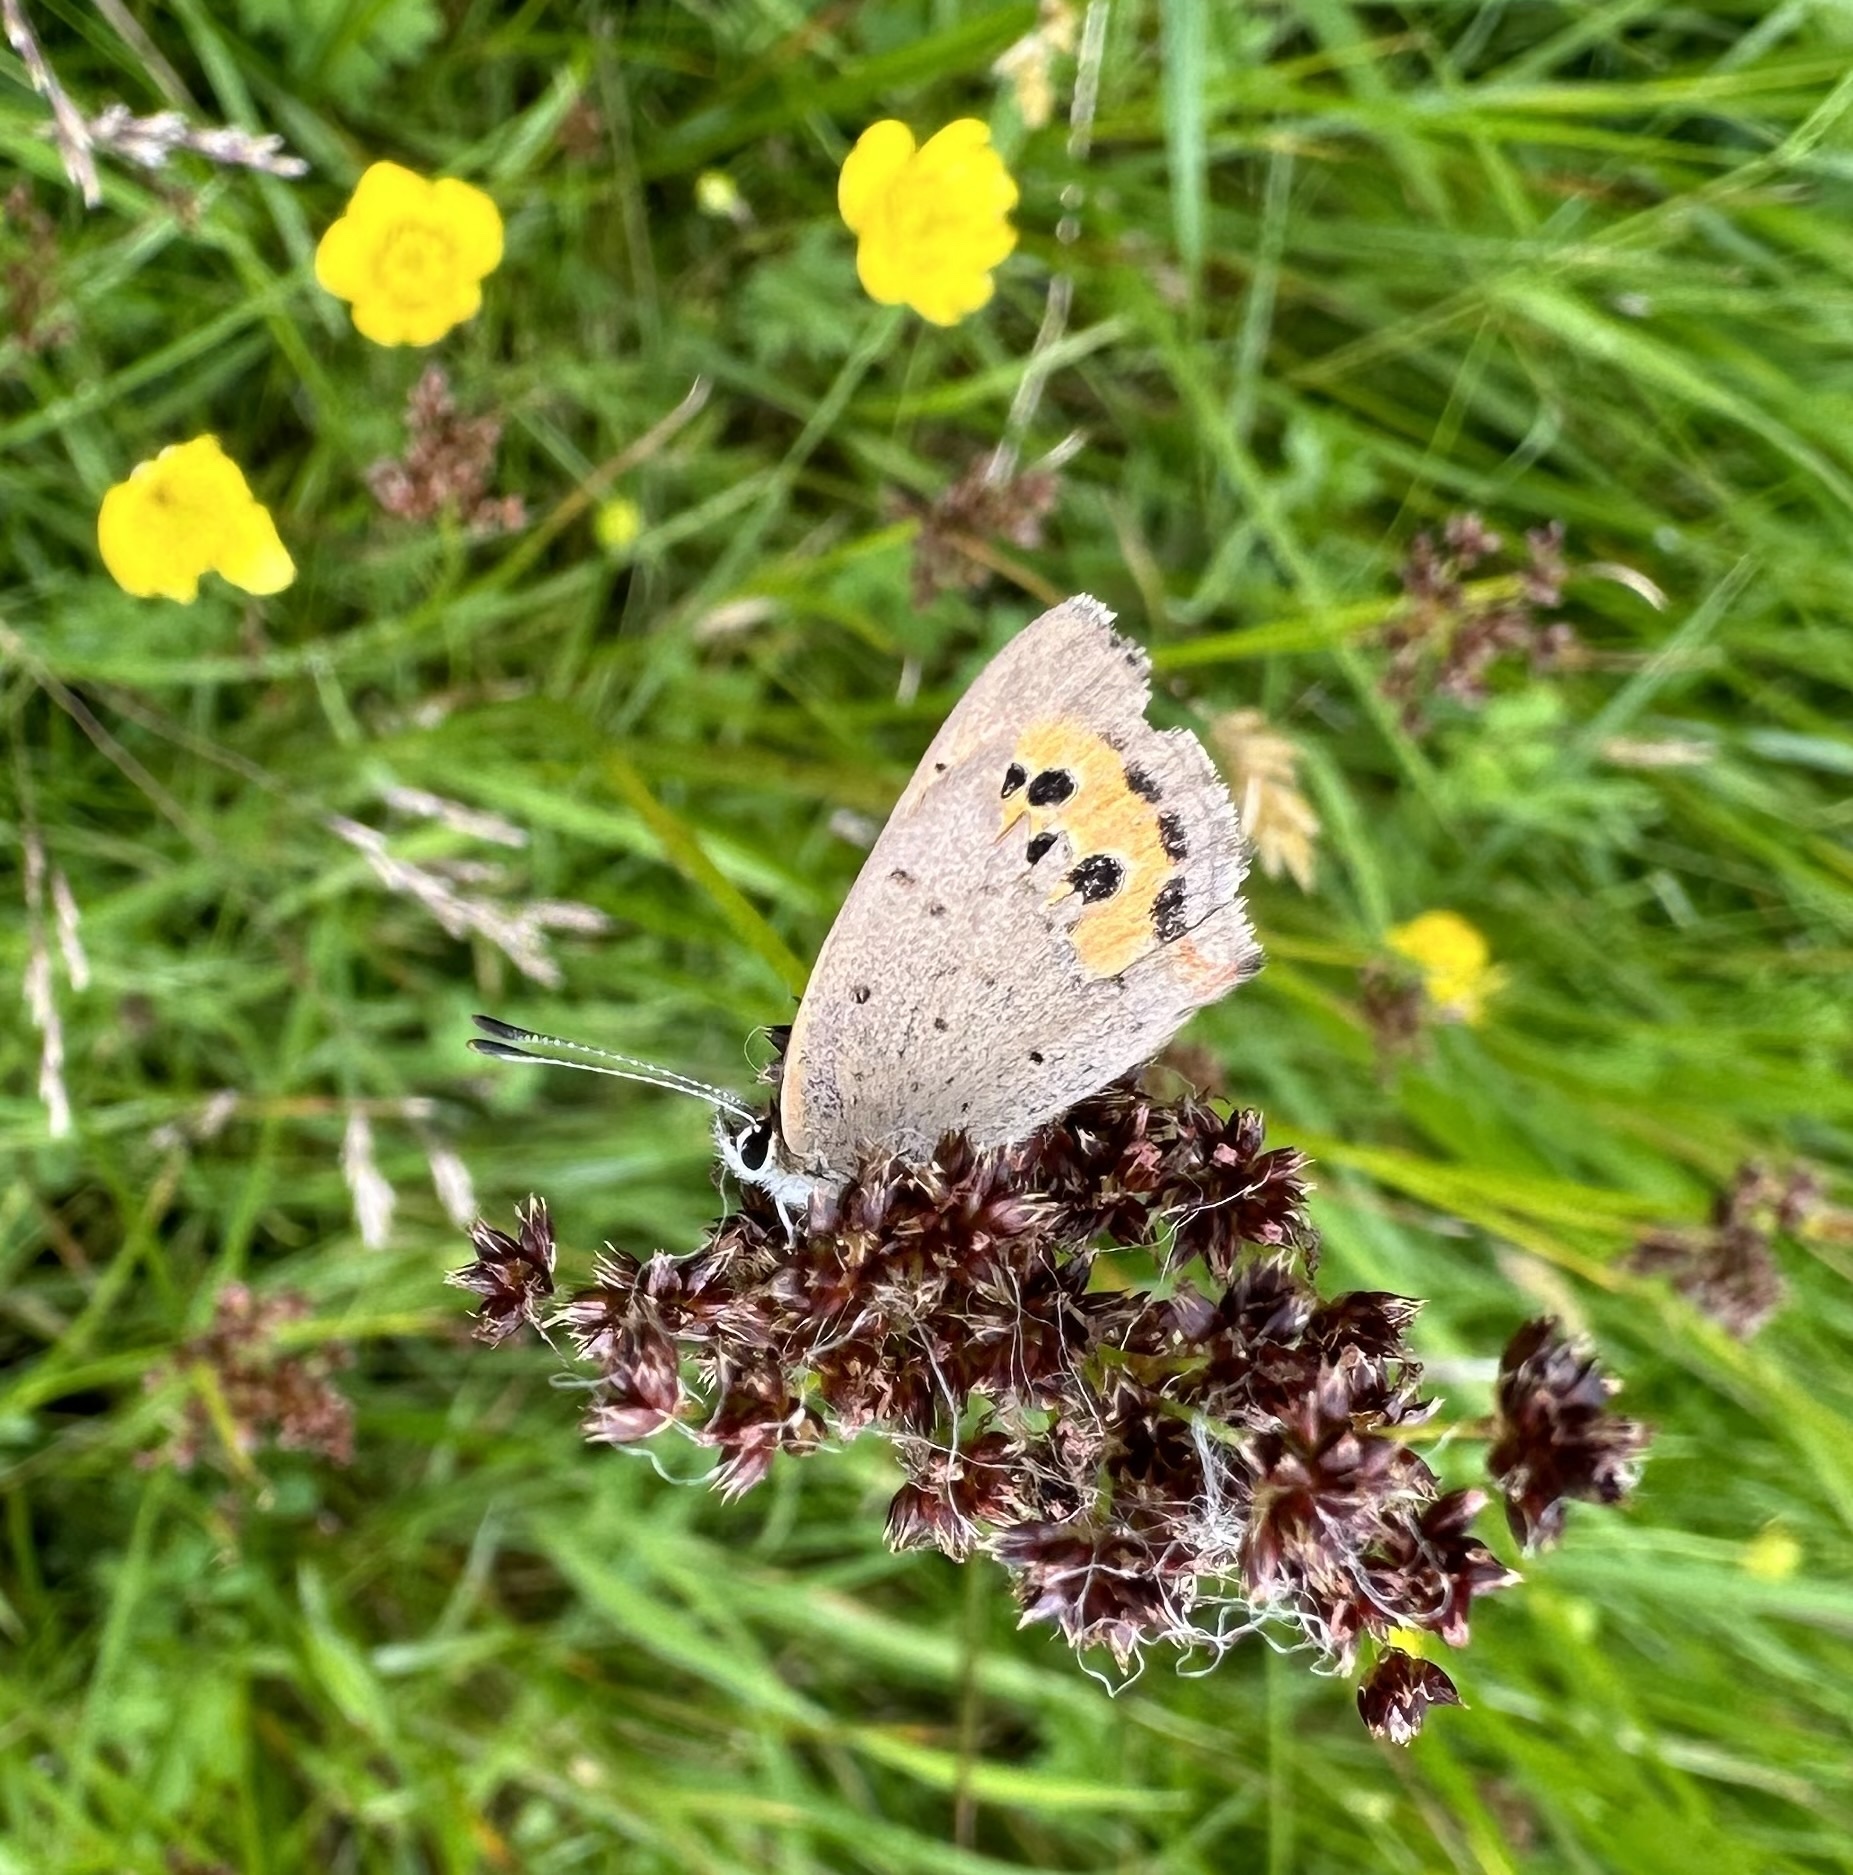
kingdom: Animalia
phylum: Arthropoda
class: Insecta
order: Lepidoptera
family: Lycaenidae
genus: Lycaena
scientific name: Lycaena phlaeas
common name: Small copper
